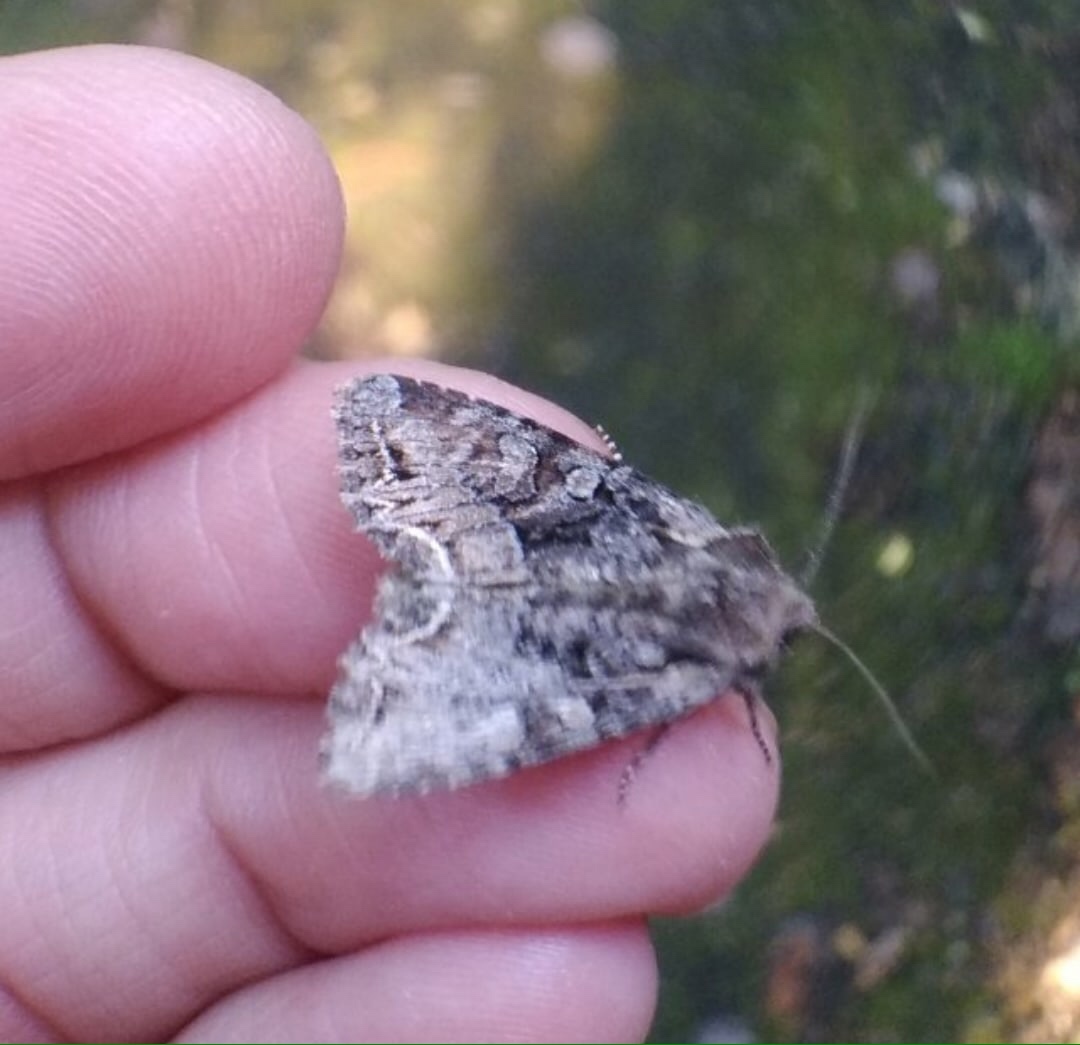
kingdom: Animalia
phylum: Arthropoda
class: Insecta
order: Lepidoptera
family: Noctuidae
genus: Lacanobia
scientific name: Lacanobia thalassina
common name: Pale-shouldered brocade
